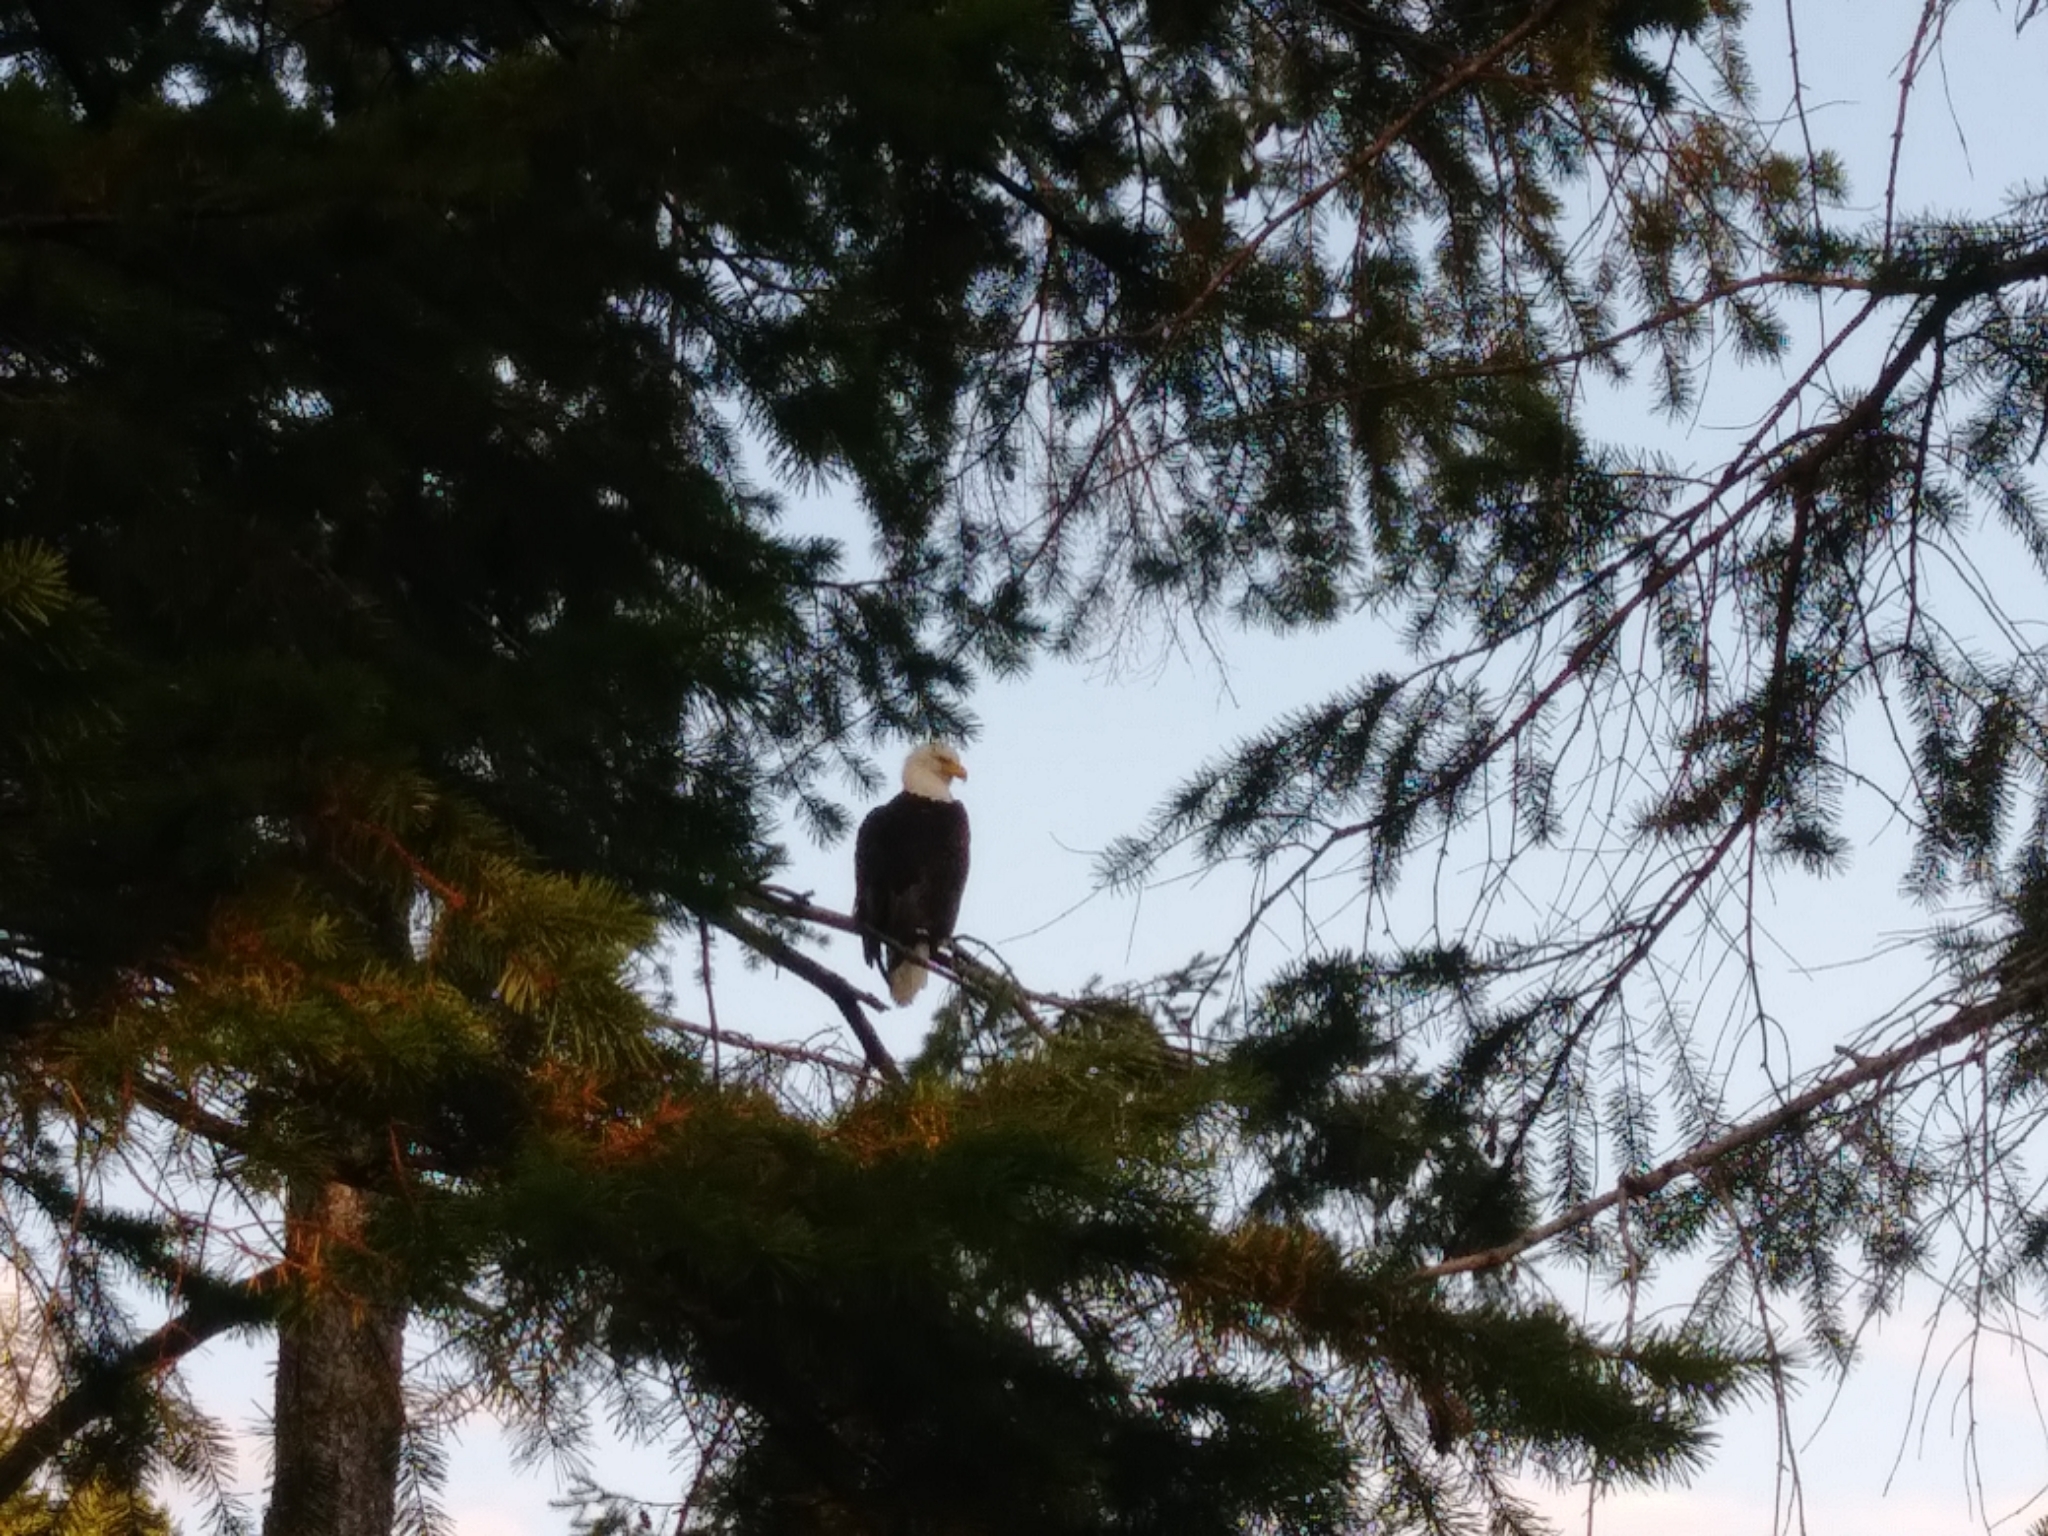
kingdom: Animalia
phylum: Chordata
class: Aves
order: Accipitriformes
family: Accipitridae
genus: Haliaeetus
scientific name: Haliaeetus leucocephalus
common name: Bald eagle
